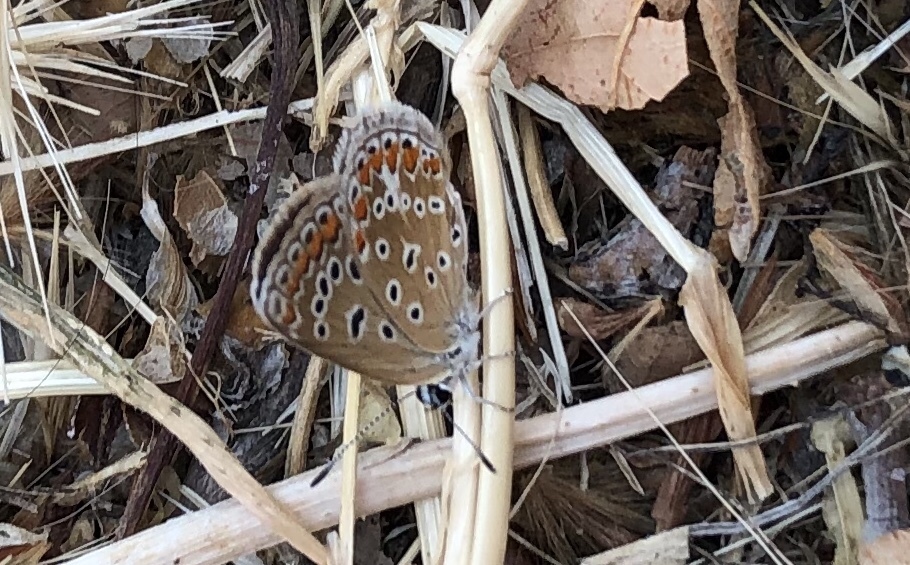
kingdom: Animalia
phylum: Arthropoda
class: Insecta
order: Lepidoptera
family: Lycaenidae
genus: Polyommatus
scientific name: Polyommatus icarus
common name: Common blue
